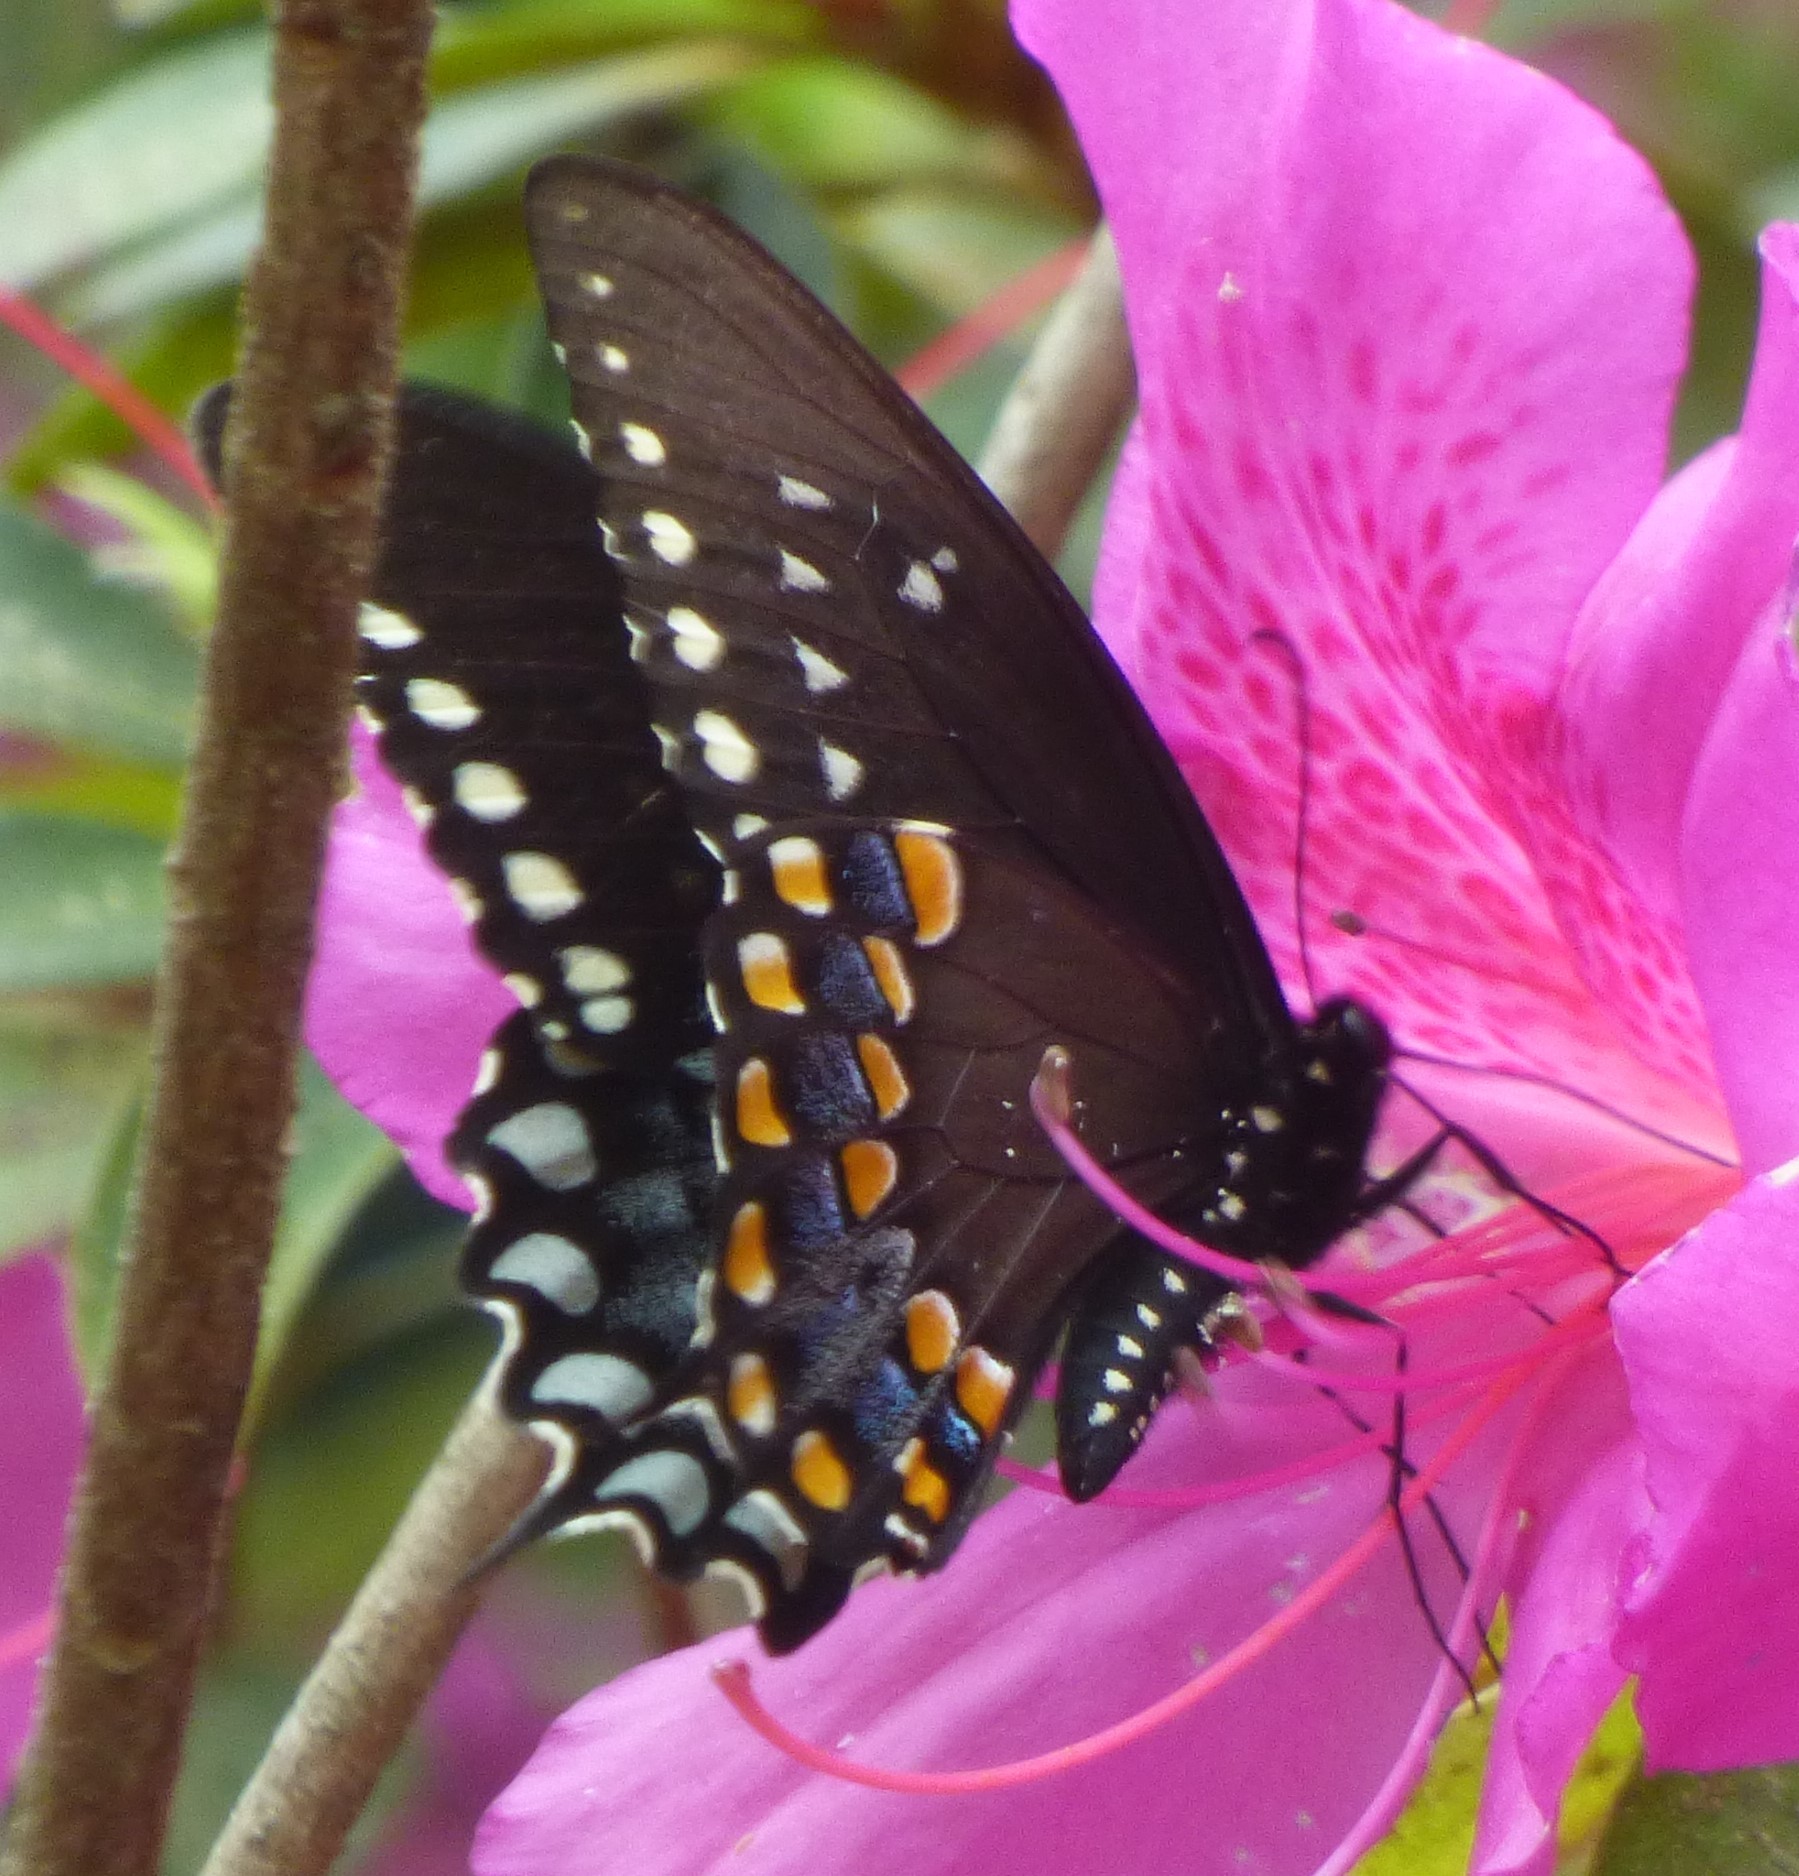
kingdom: Animalia
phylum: Arthropoda
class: Insecta
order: Lepidoptera
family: Papilionidae
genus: Papilio
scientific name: Papilio troilus
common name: Spicebush swallowtail
